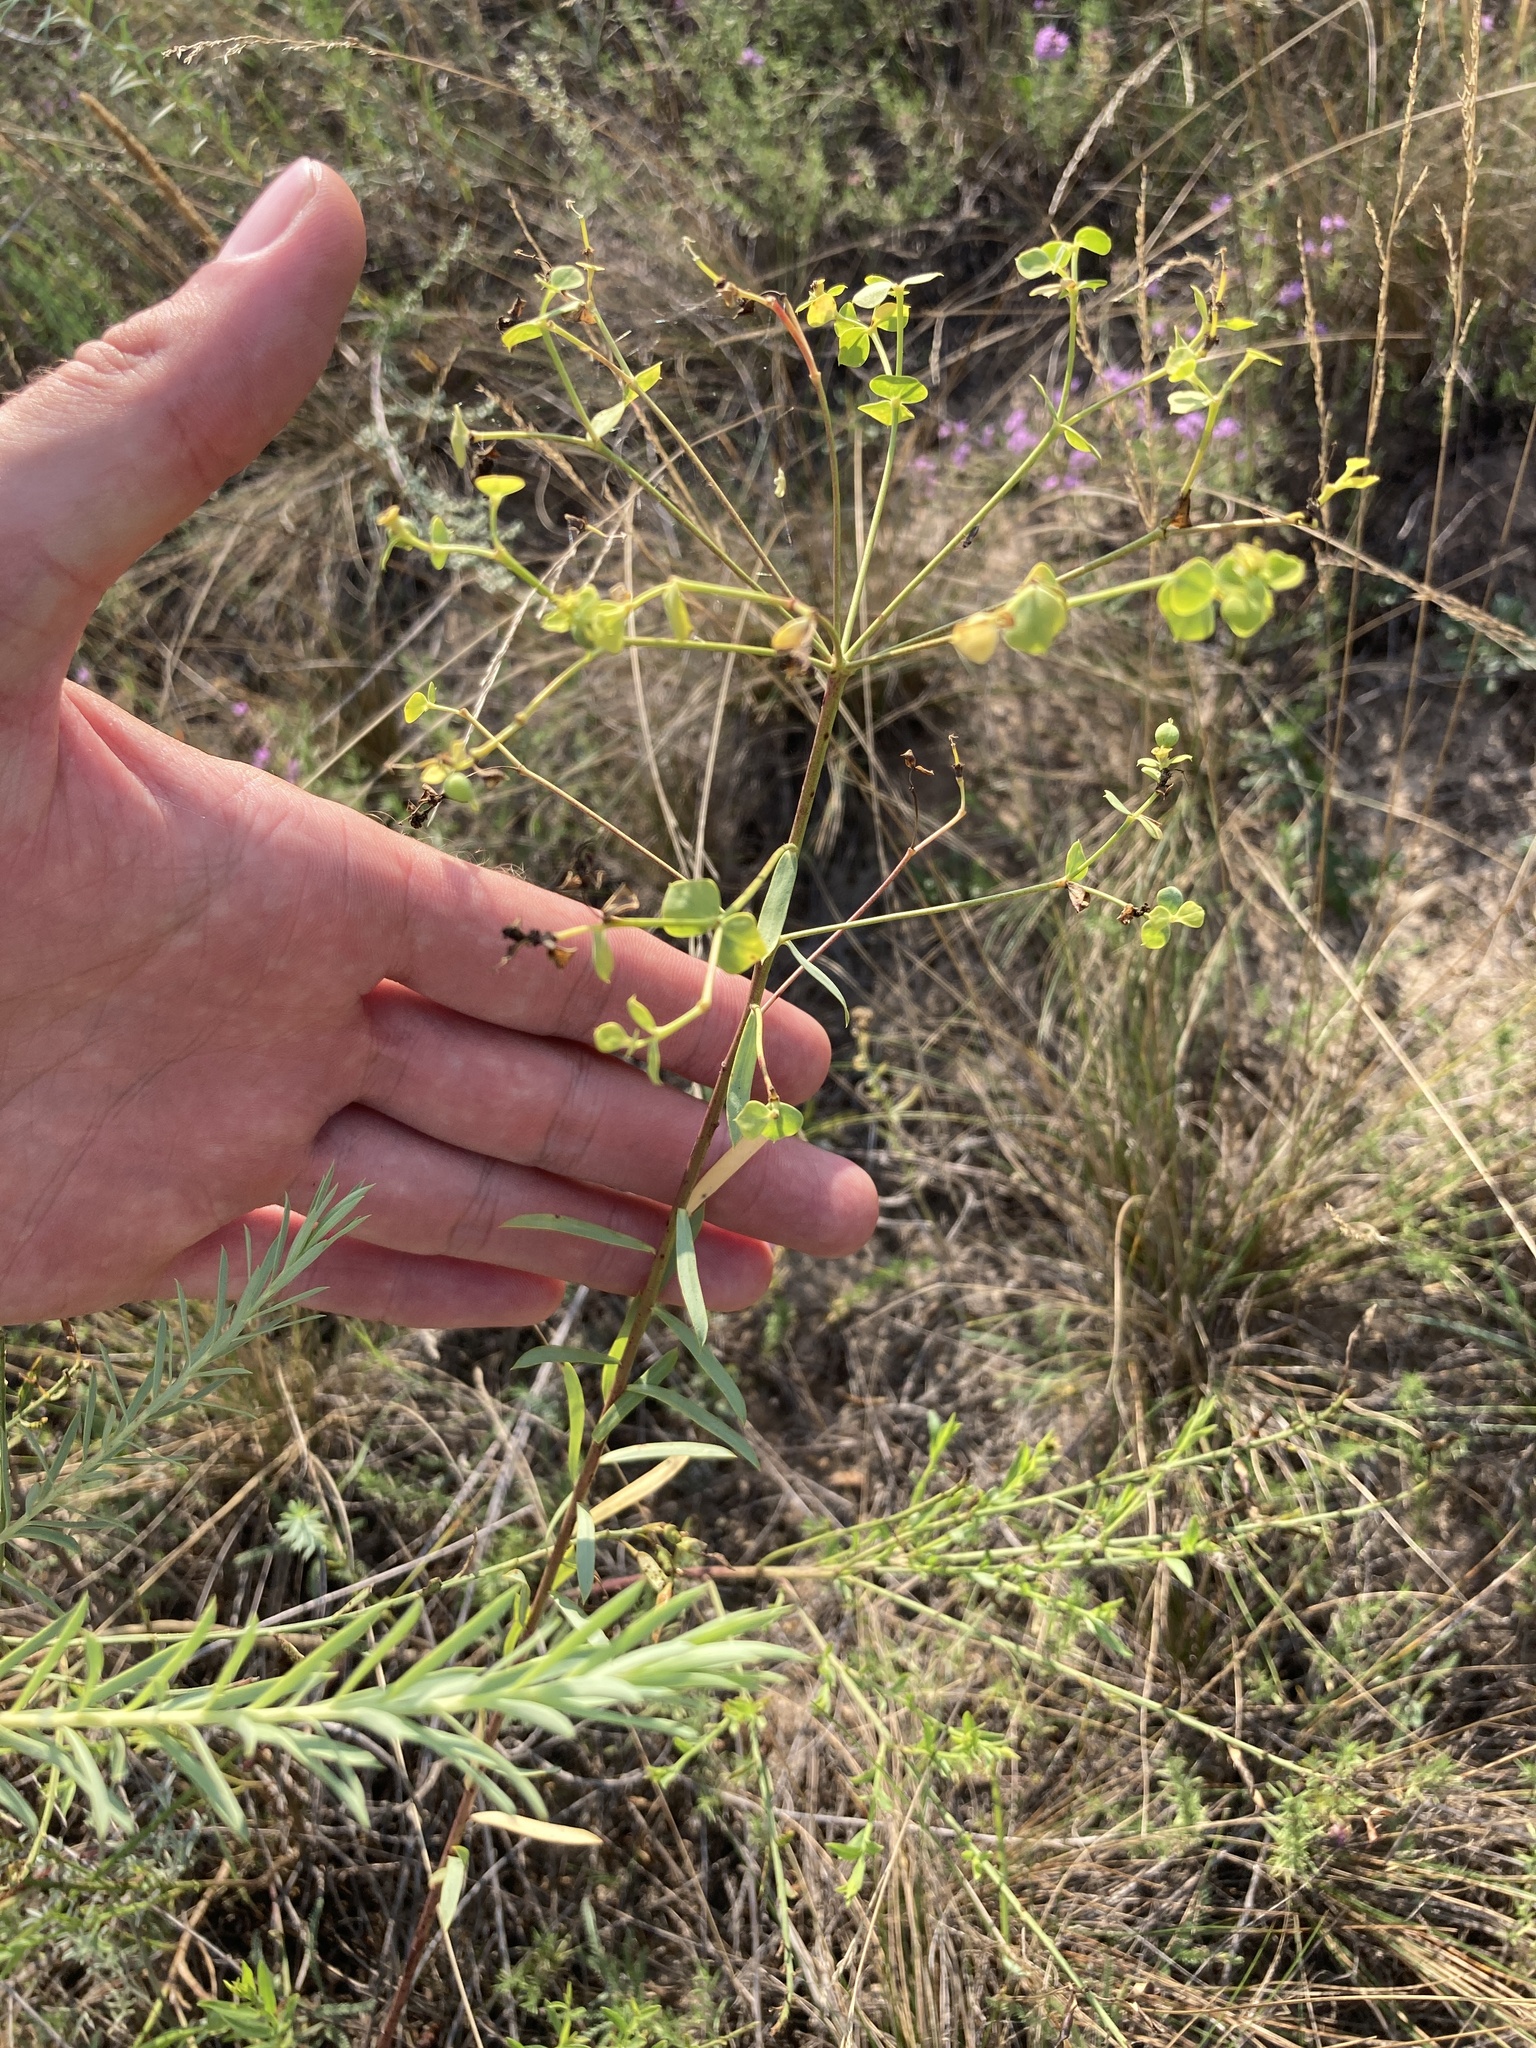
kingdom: Plantae
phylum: Tracheophyta
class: Magnoliopsida
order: Malpighiales
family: Euphorbiaceae
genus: Euphorbia
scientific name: Euphorbia seguieriana
